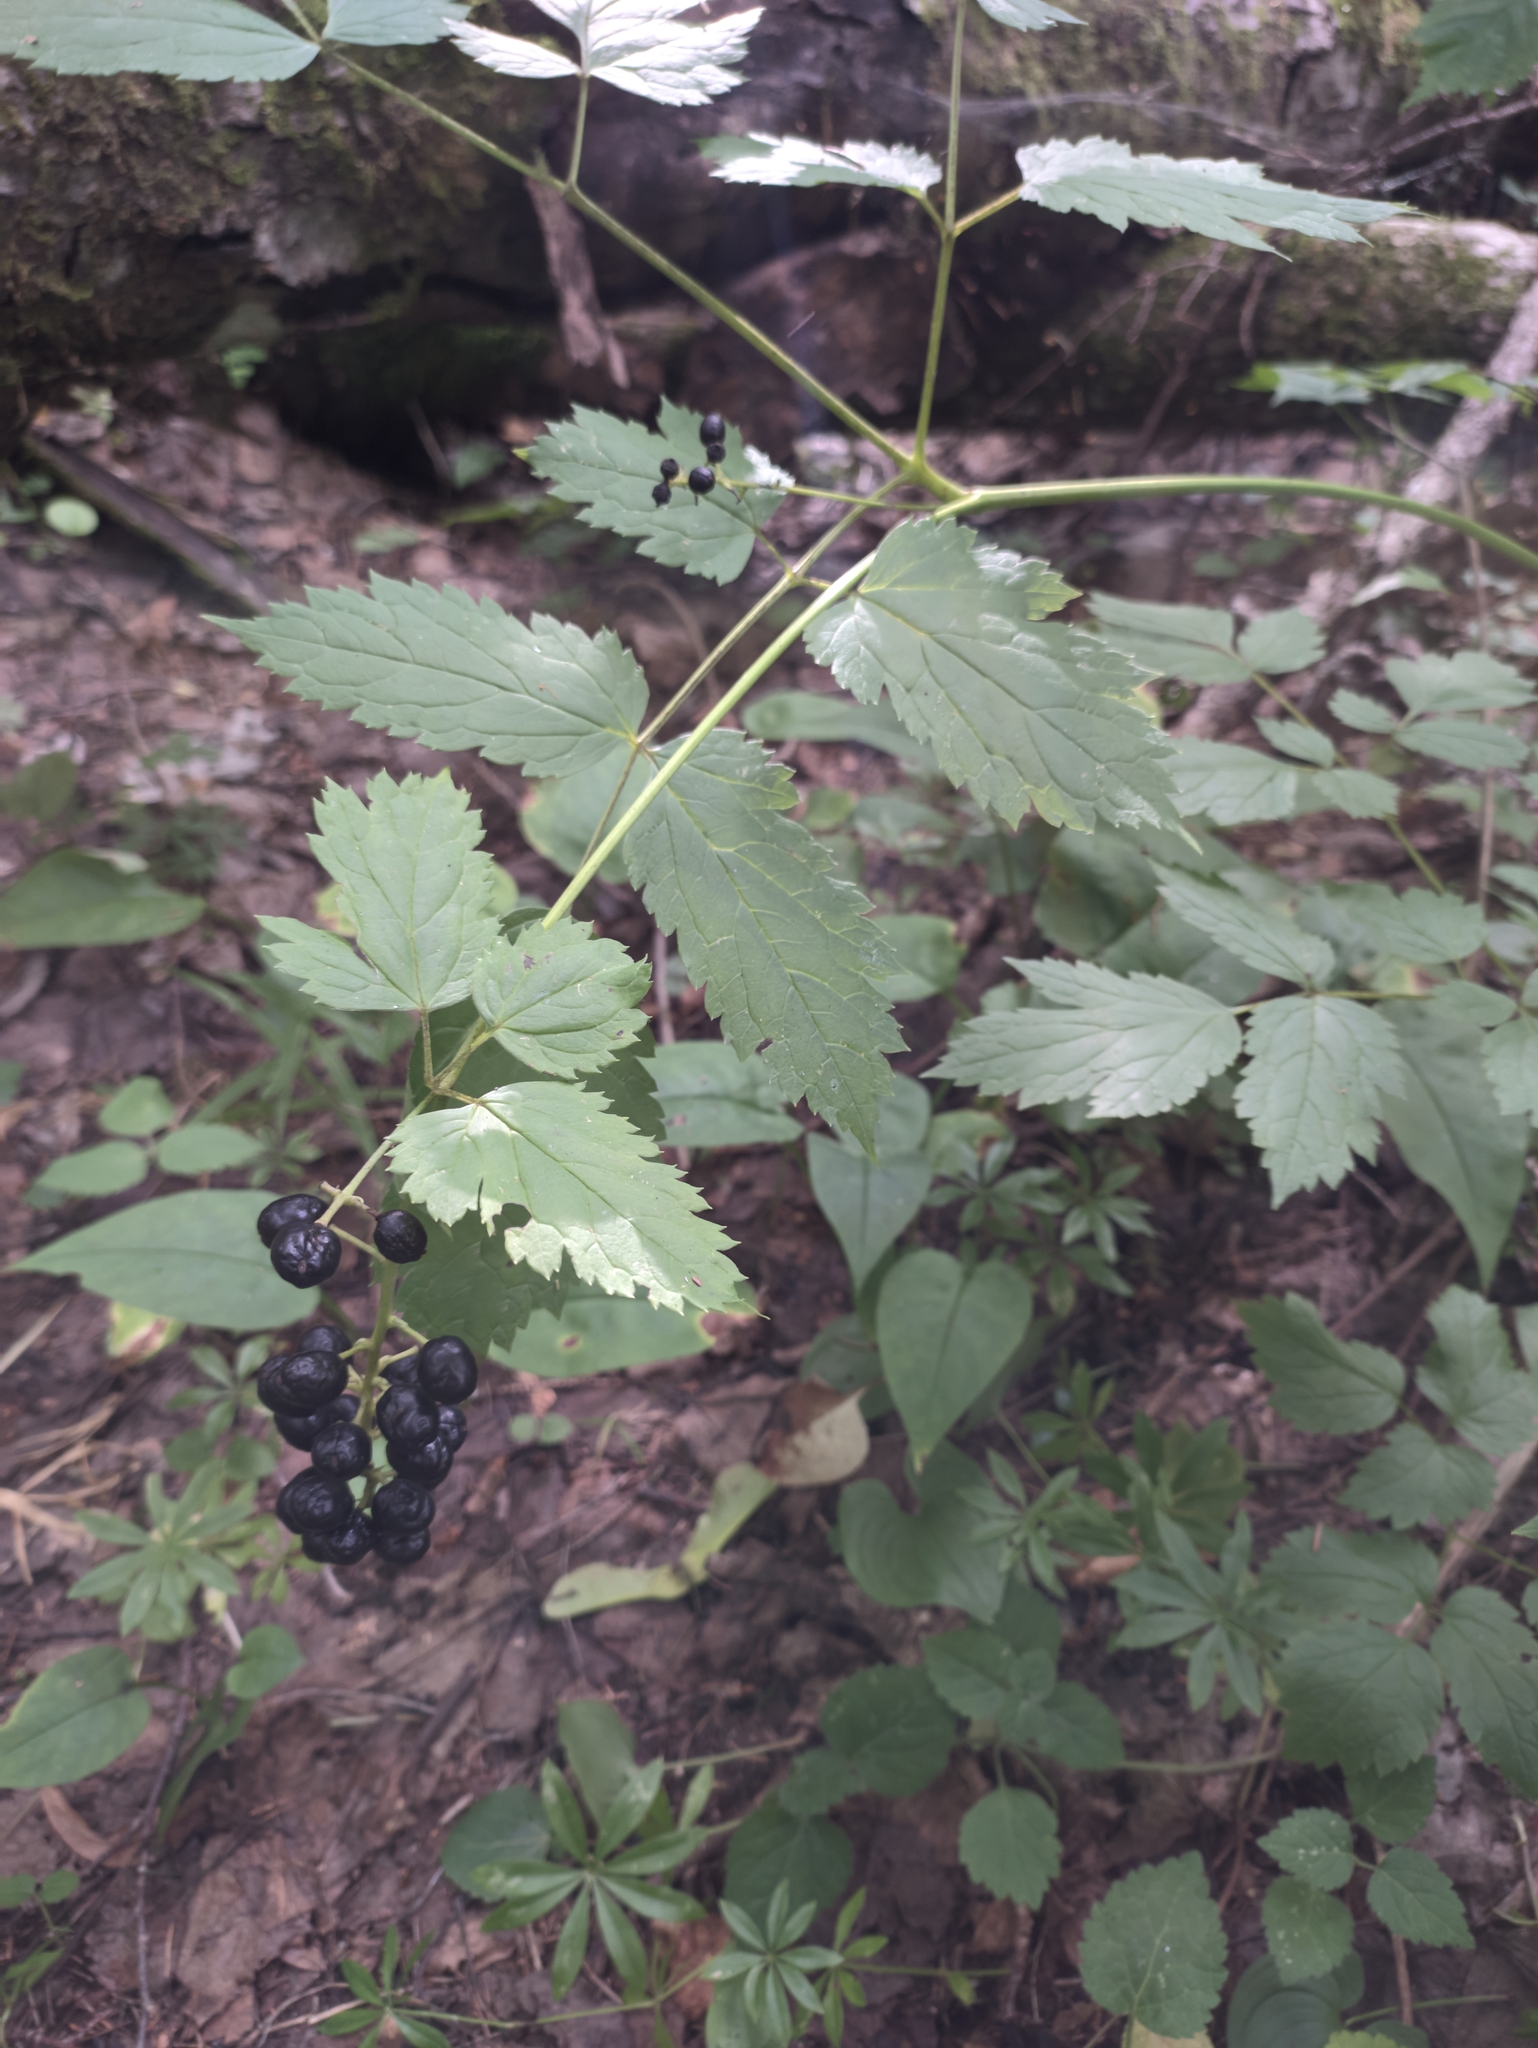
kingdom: Plantae
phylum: Tracheophyta
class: Magnoliopsida
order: Ranunculales
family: Ranunculaceae
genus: Actaea
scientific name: Actaea spicata
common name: Baneberry
